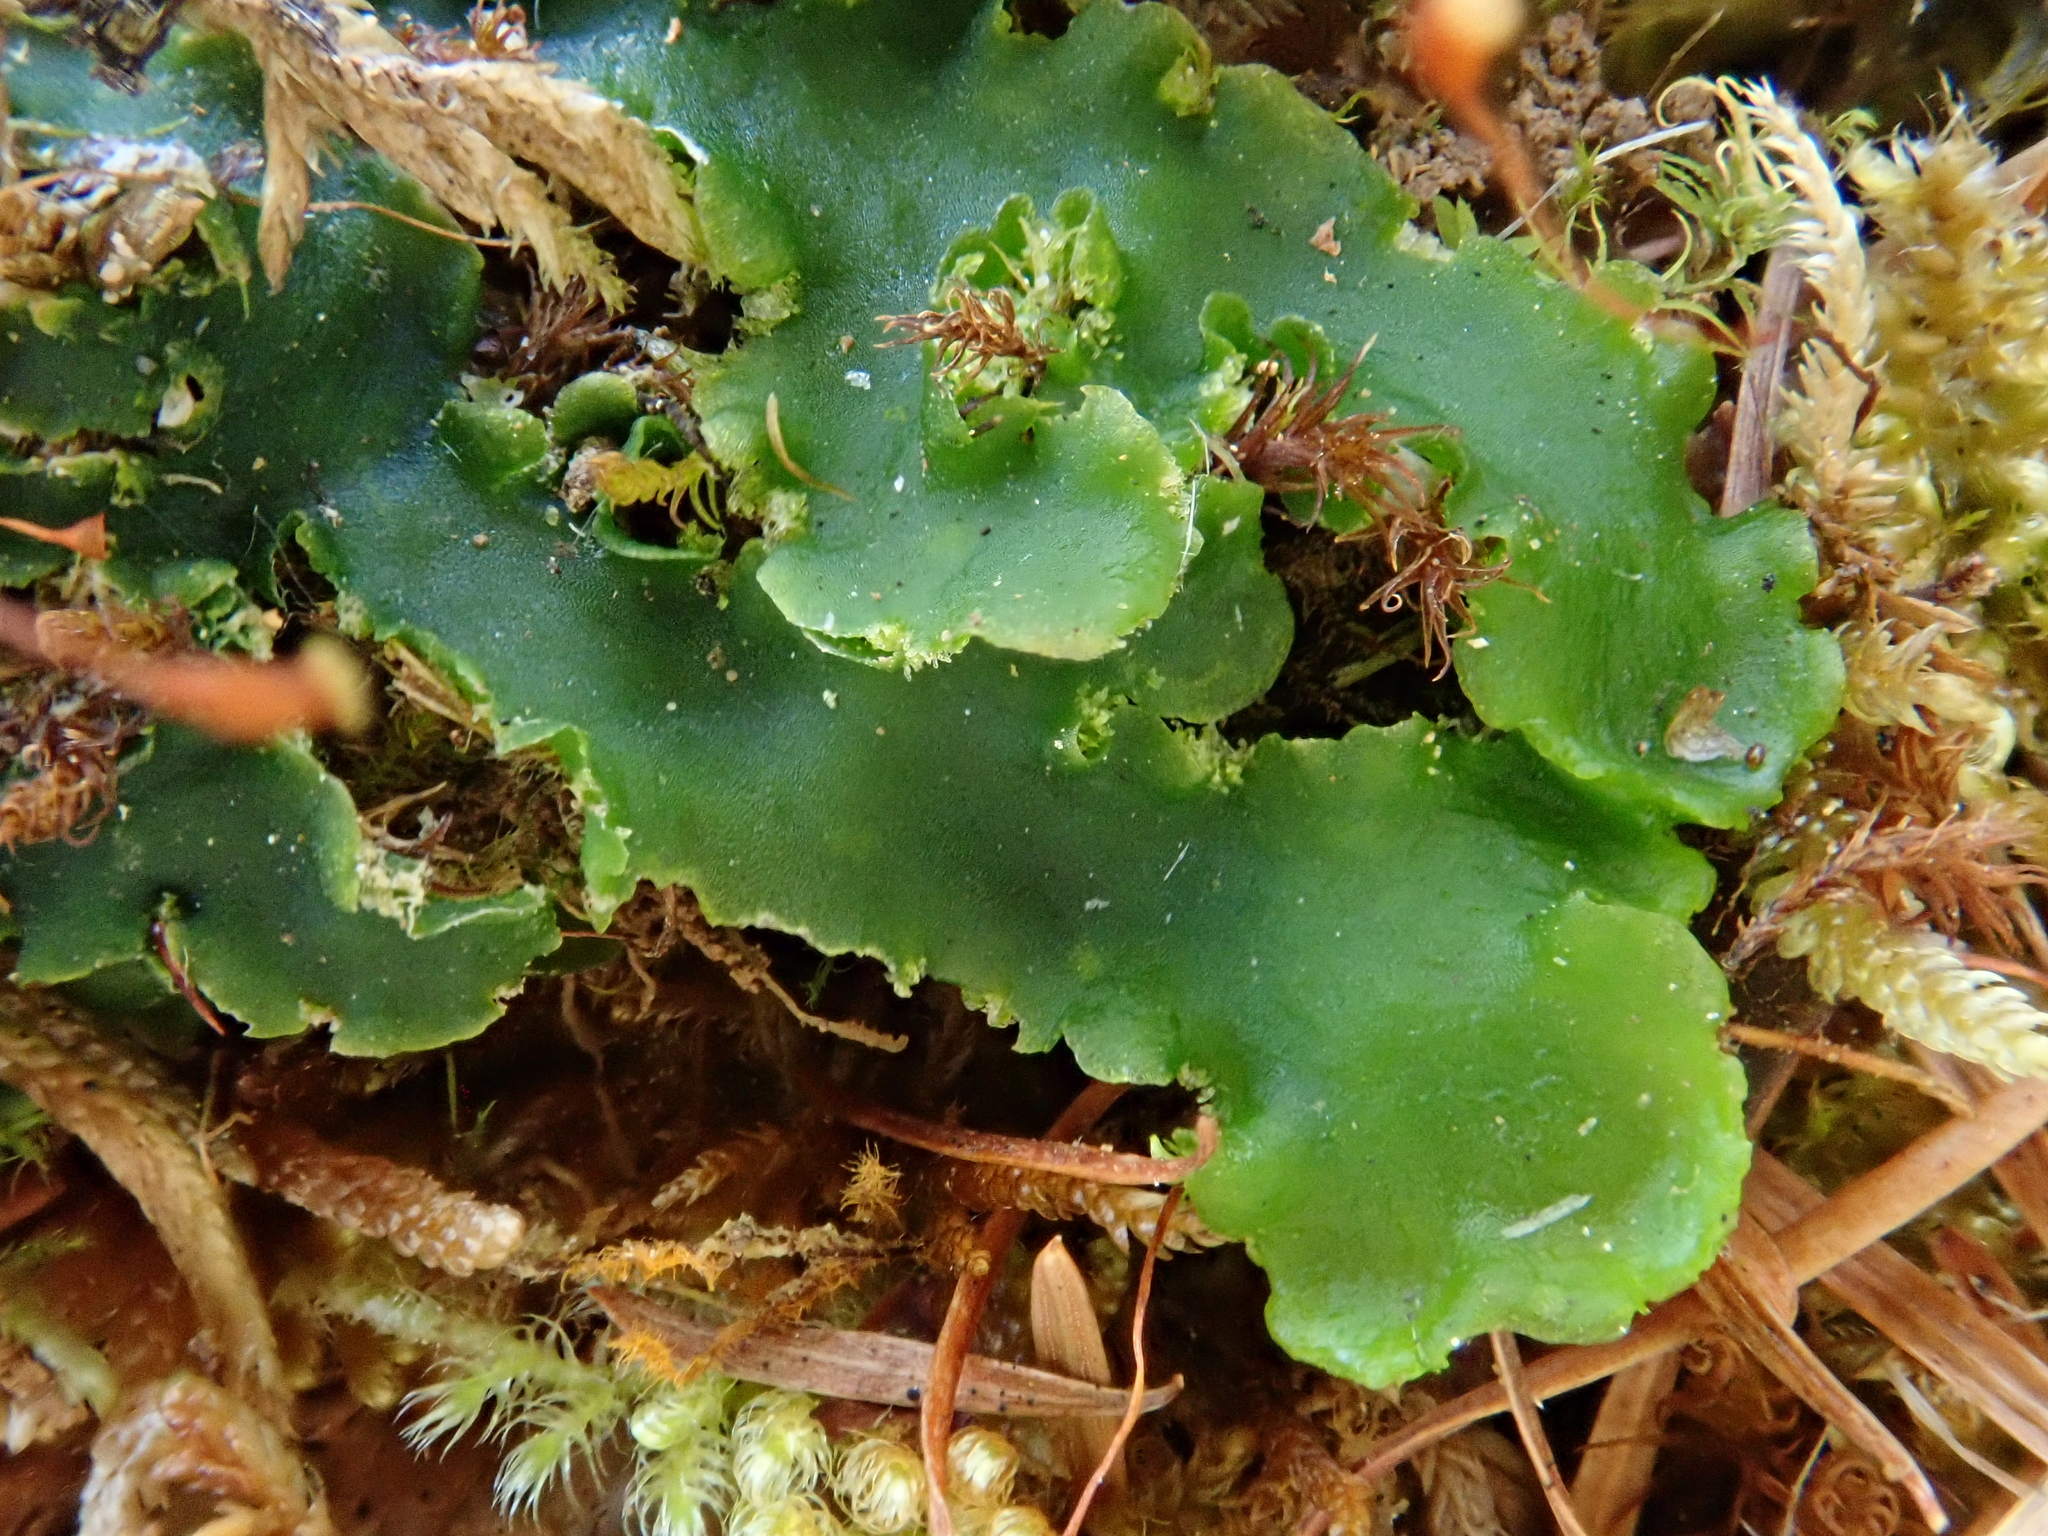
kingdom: Plantae
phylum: Marchantiophyta
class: Jungermanniopsida
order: Metzgeriales
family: Aneuraceae
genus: Aneura
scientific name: Aneura pinguis
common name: Common greasewort
